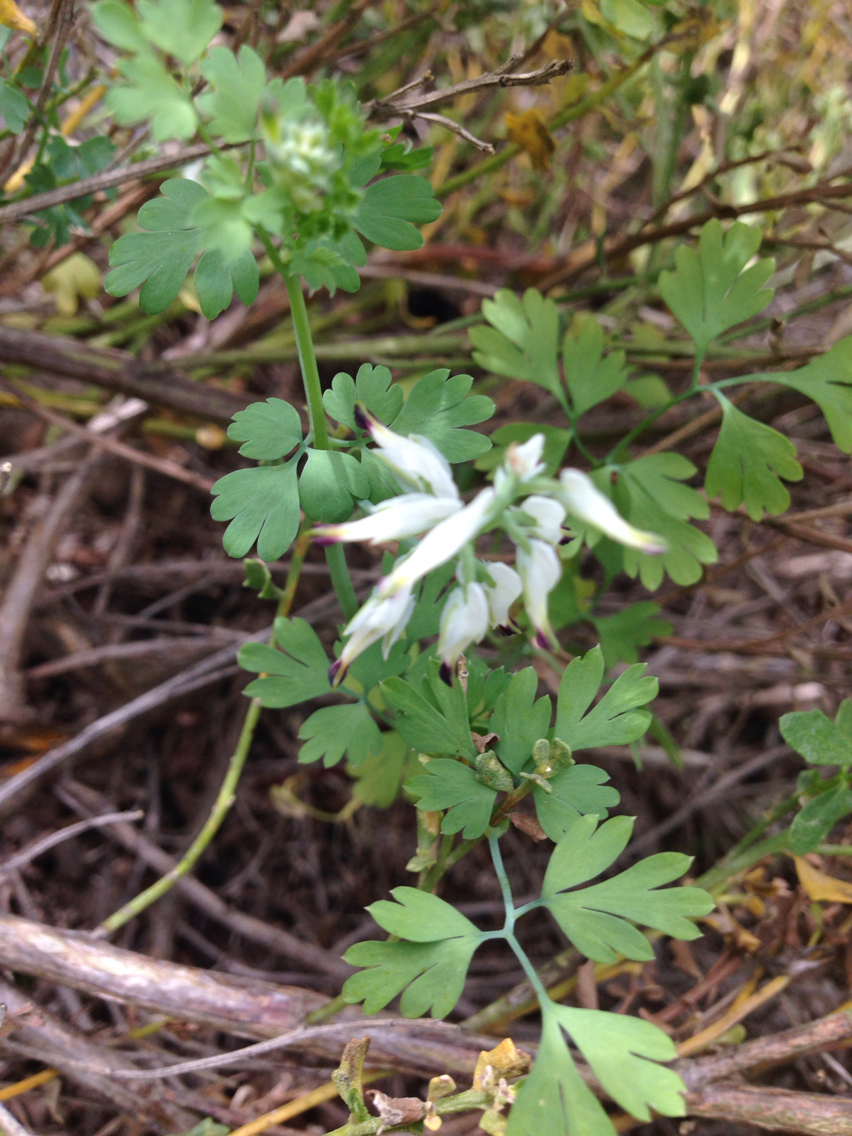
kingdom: Plantae
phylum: Tracheophyta
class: Magnoliopsida
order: Ranunculales
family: Papaveraceae
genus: Fumaria
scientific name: Fumaria capreolata
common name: White ramping-fumitory
